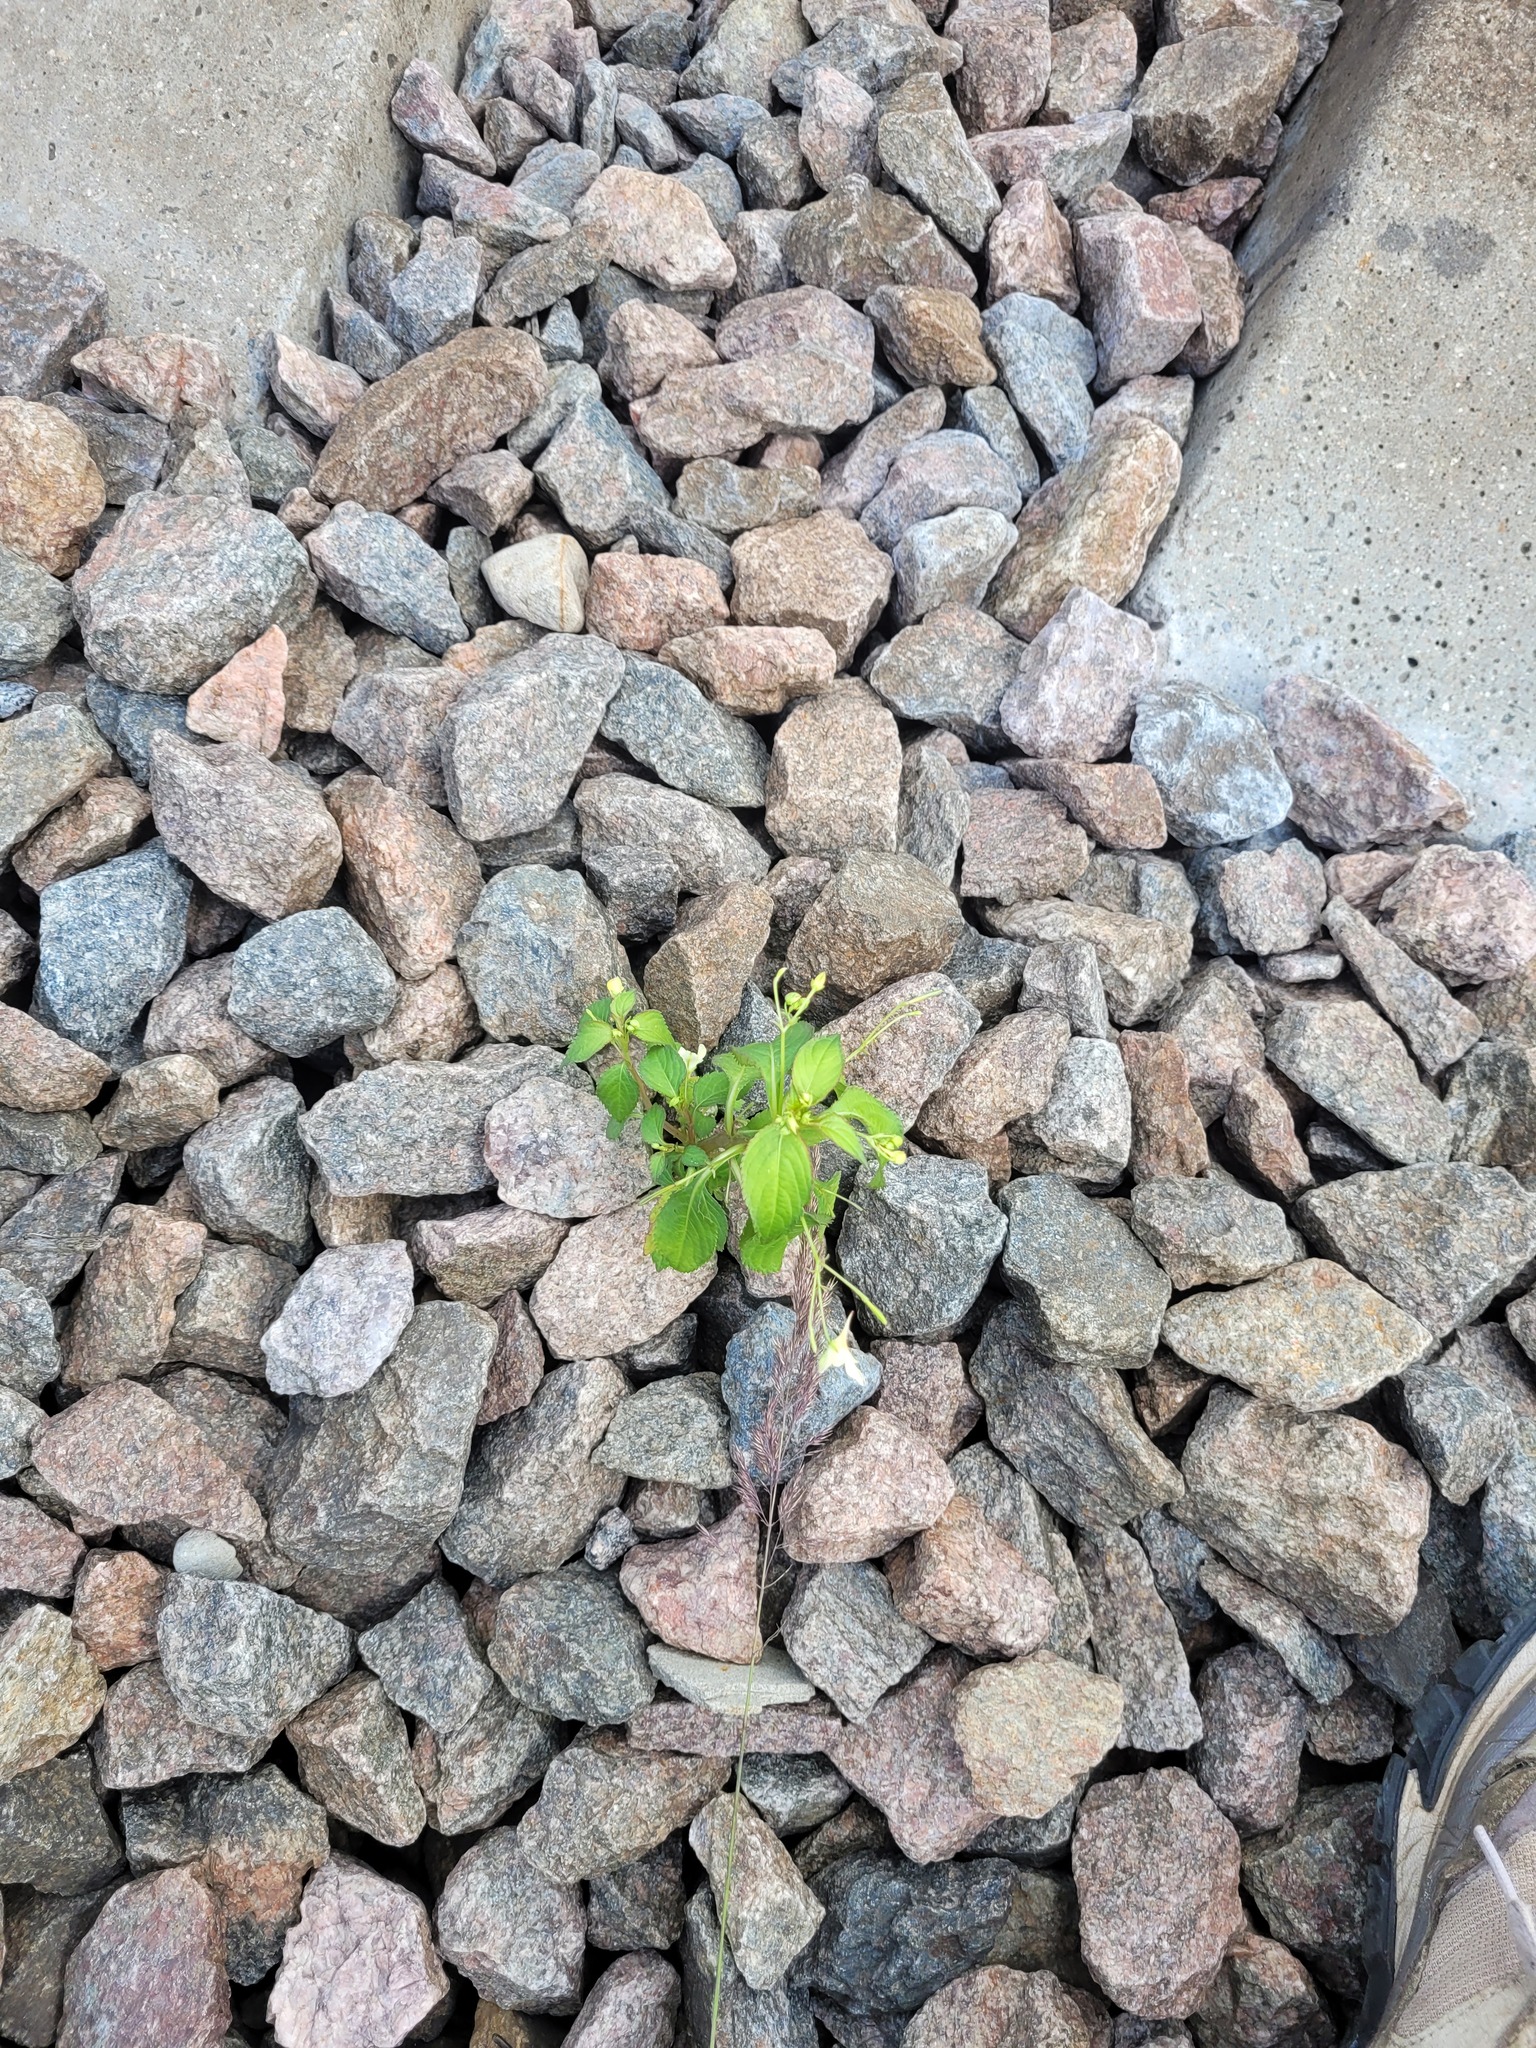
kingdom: Plantae
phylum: Tracheophyta
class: Magnoliopsida
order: Ericales
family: Balsaminaceae
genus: Impatiens
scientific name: Impatiens parviflora
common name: Small balsam
